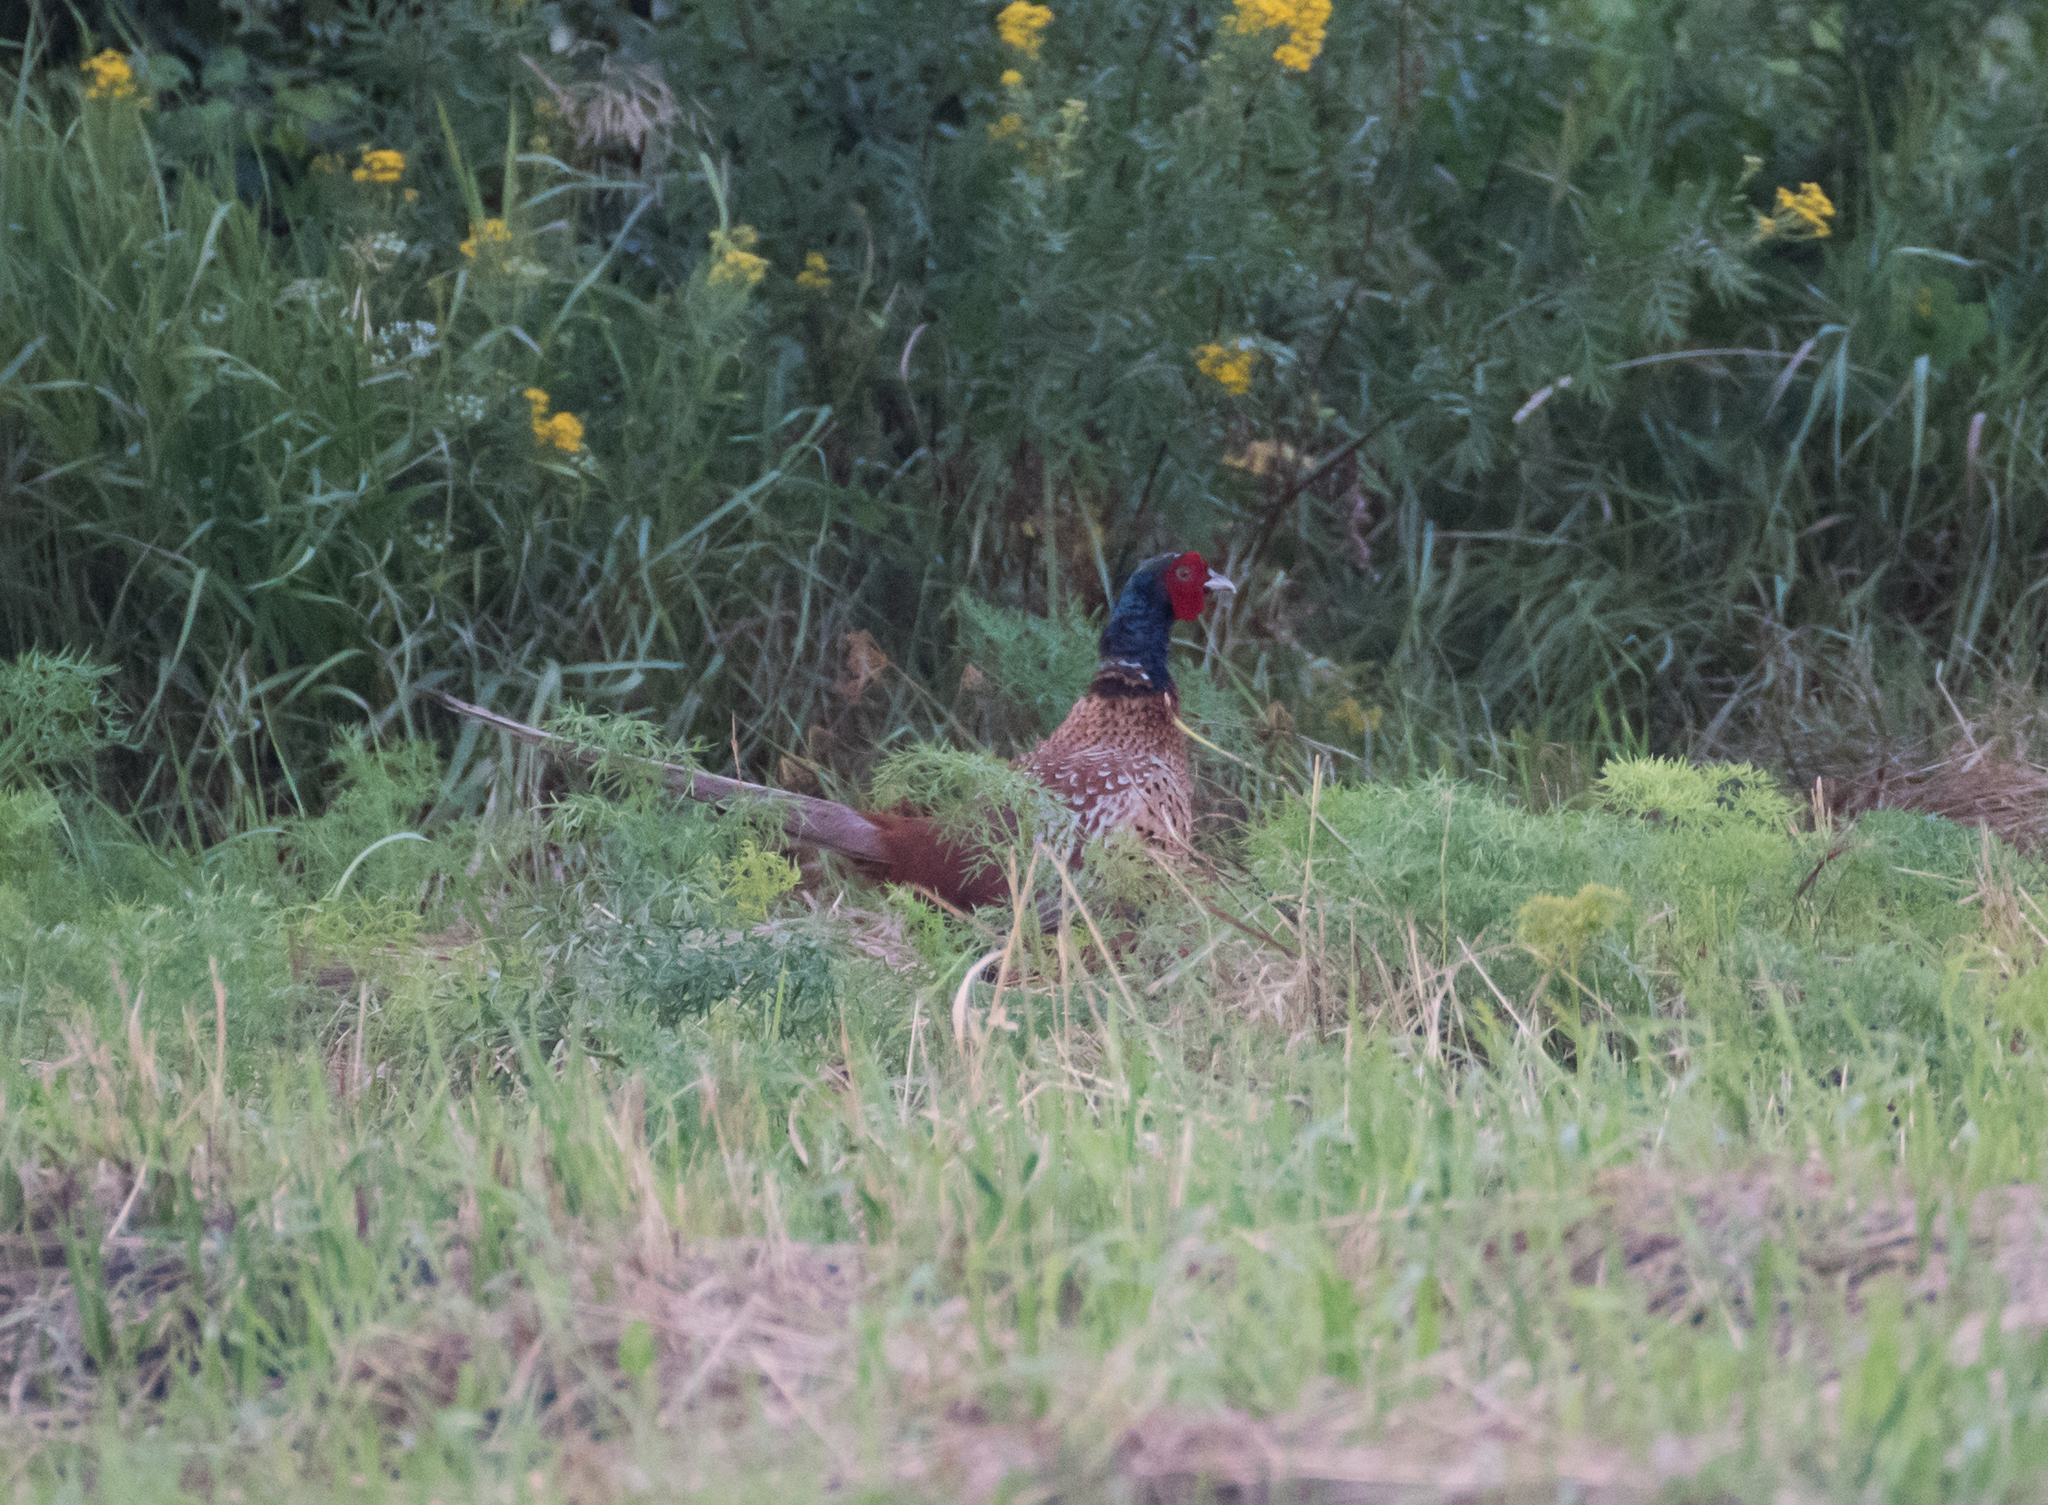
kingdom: Animalia
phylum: Chordata
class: Aves
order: Galliformes
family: Phasianidae
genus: Phasianus
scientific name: Phasianus colchicus
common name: Common pheasant
